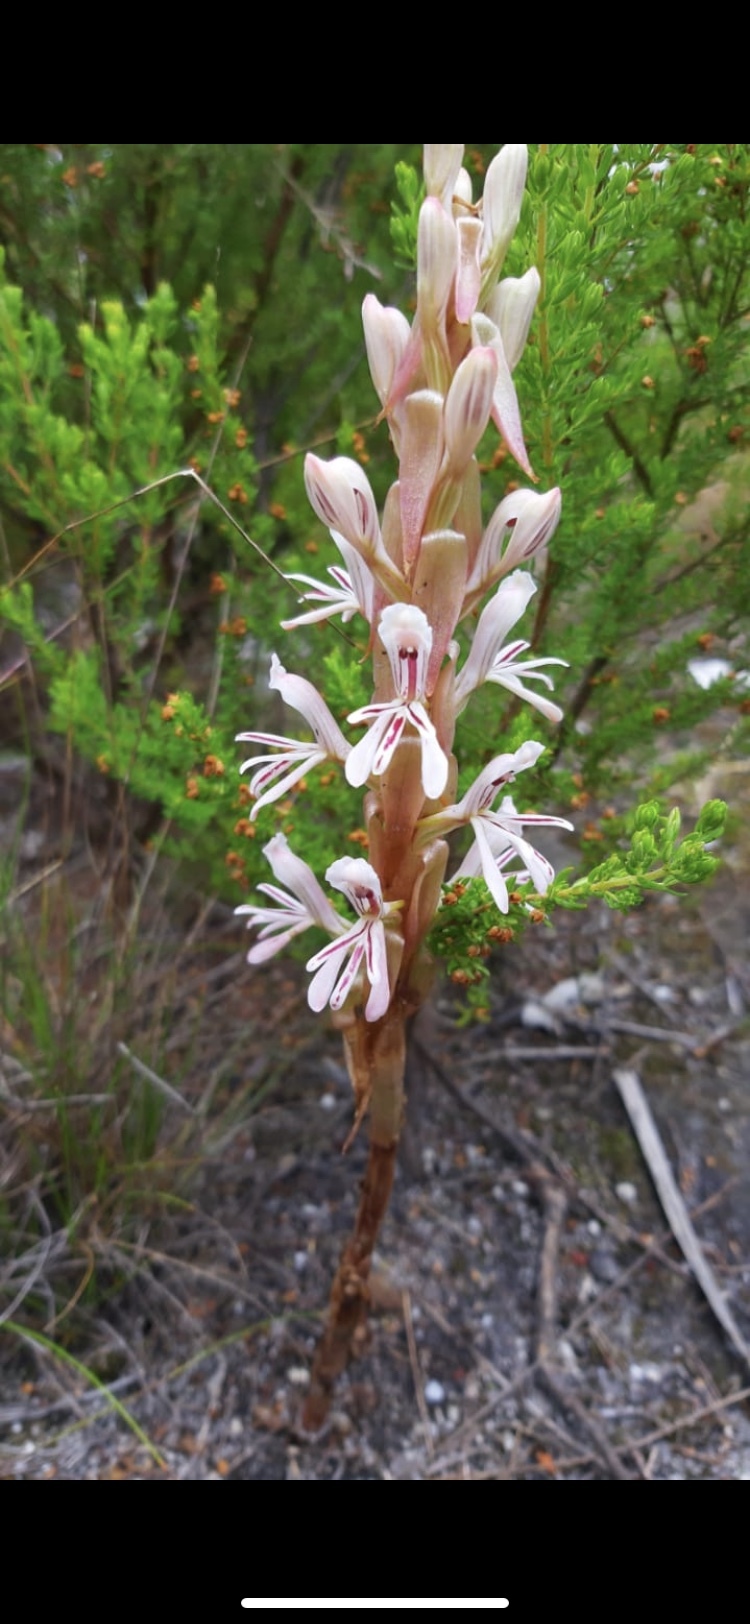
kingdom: Plantae
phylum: Tracheophyta
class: Liliopsida
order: Asparagales
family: Orchidaceae
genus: Satyrium
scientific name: Satyrium longicolle
